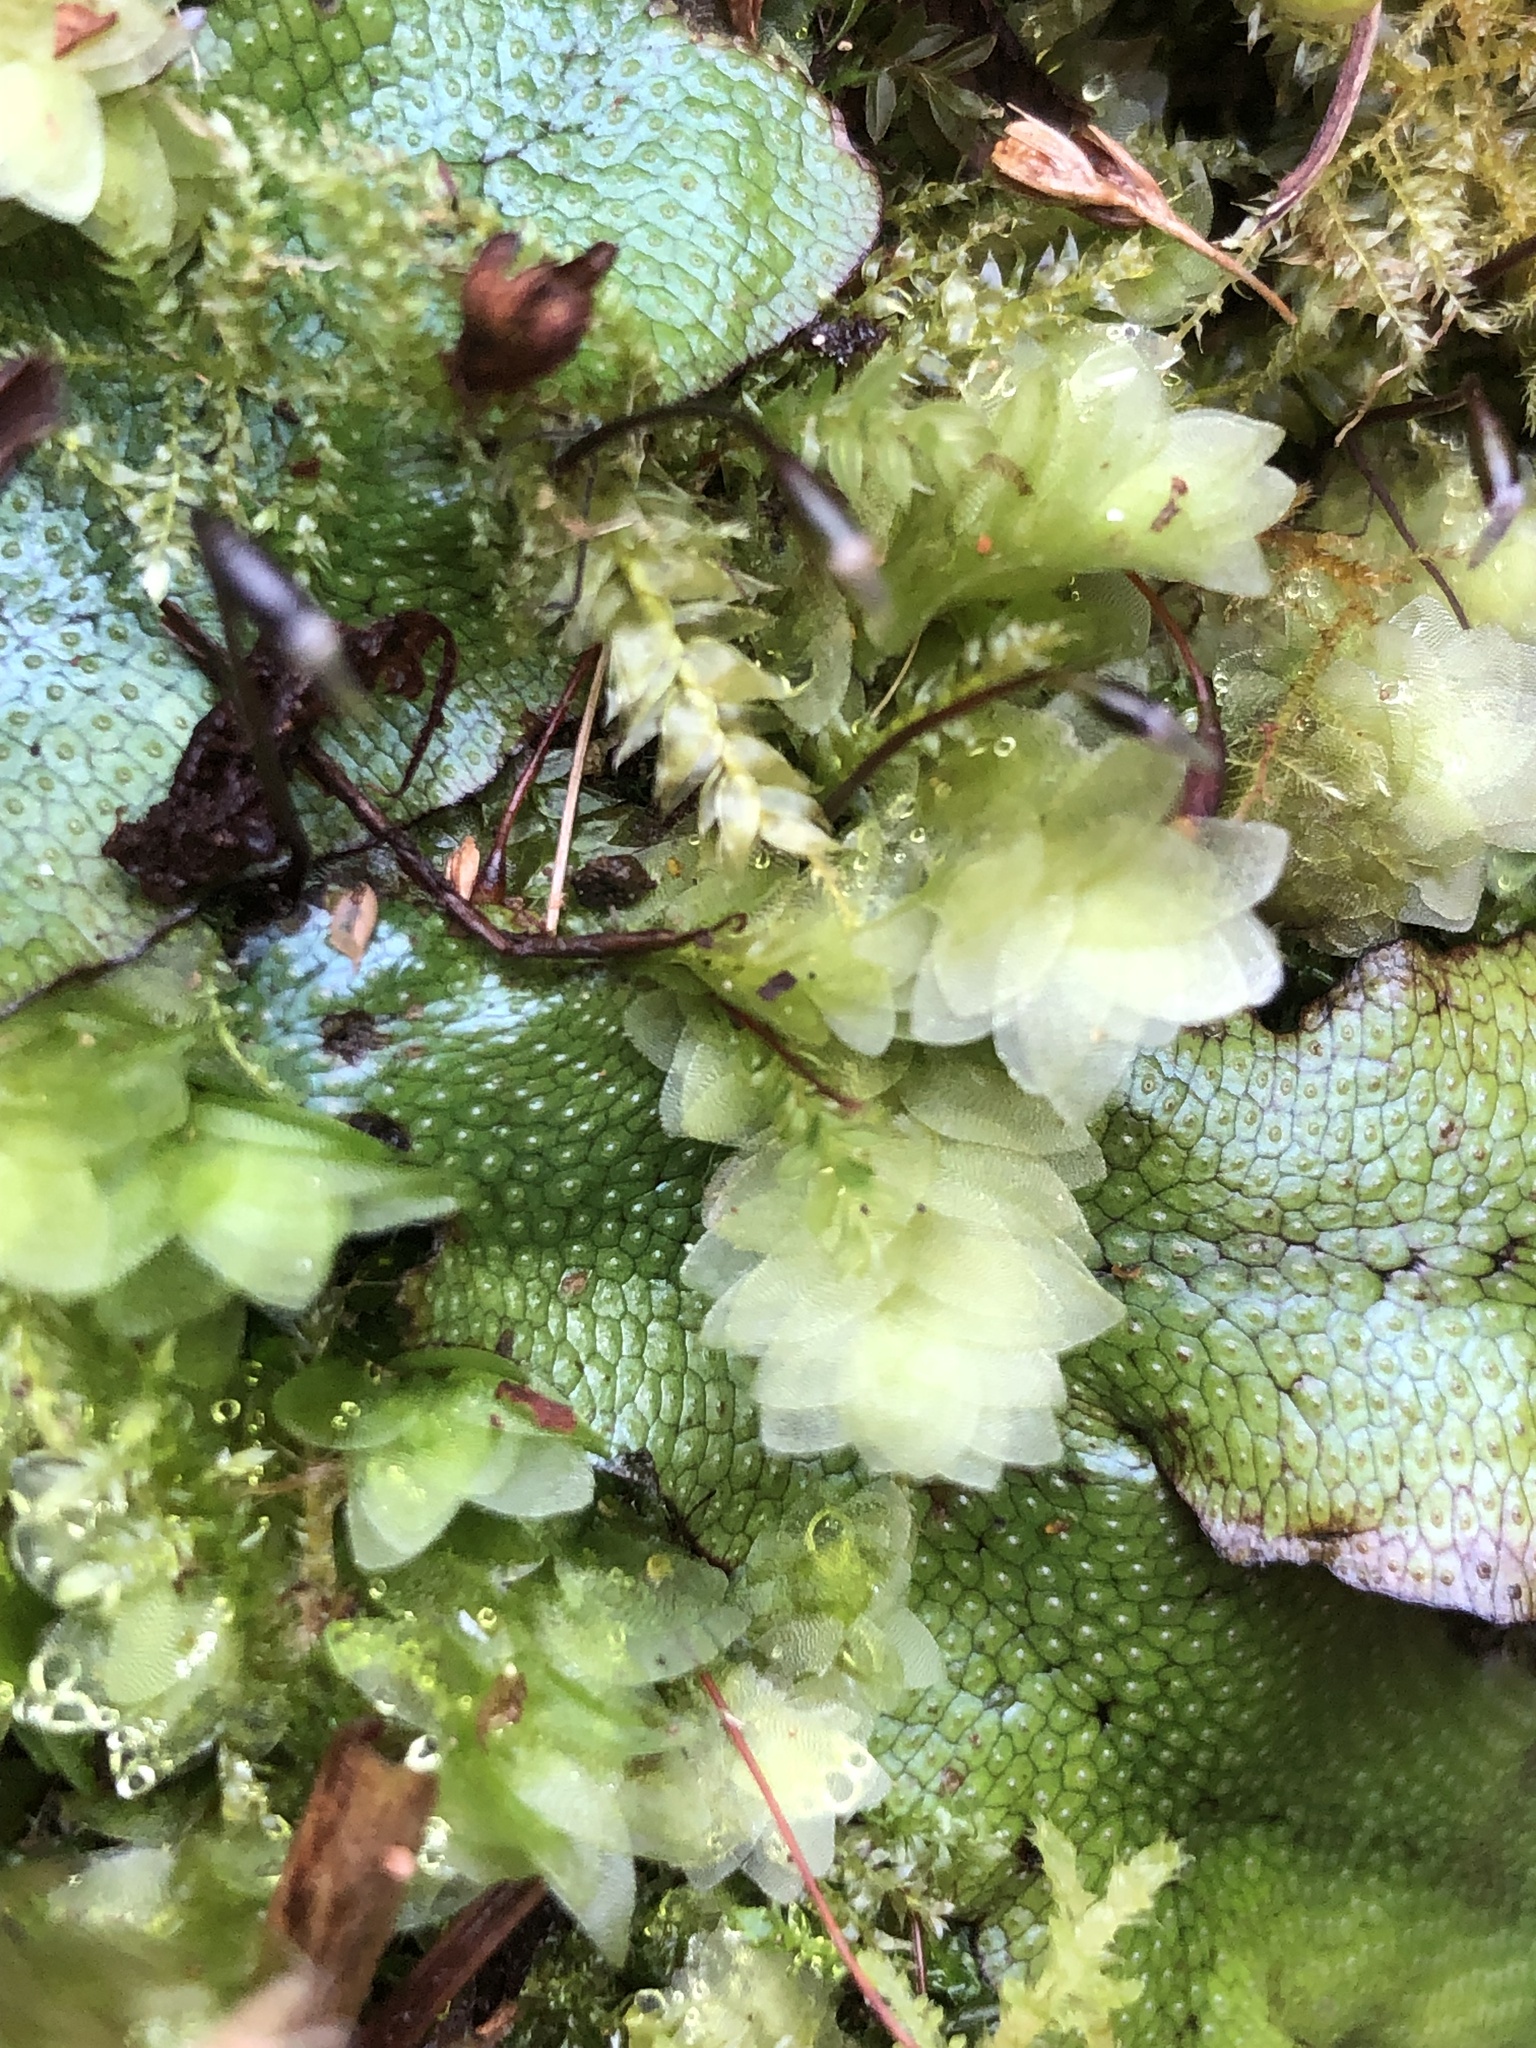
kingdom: Plantae
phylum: Bryophyta
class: Bryopsida
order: Hookeriales
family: Hookeriaceae
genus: Hookeria
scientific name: Hookeria lucens
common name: Shining hookeria
